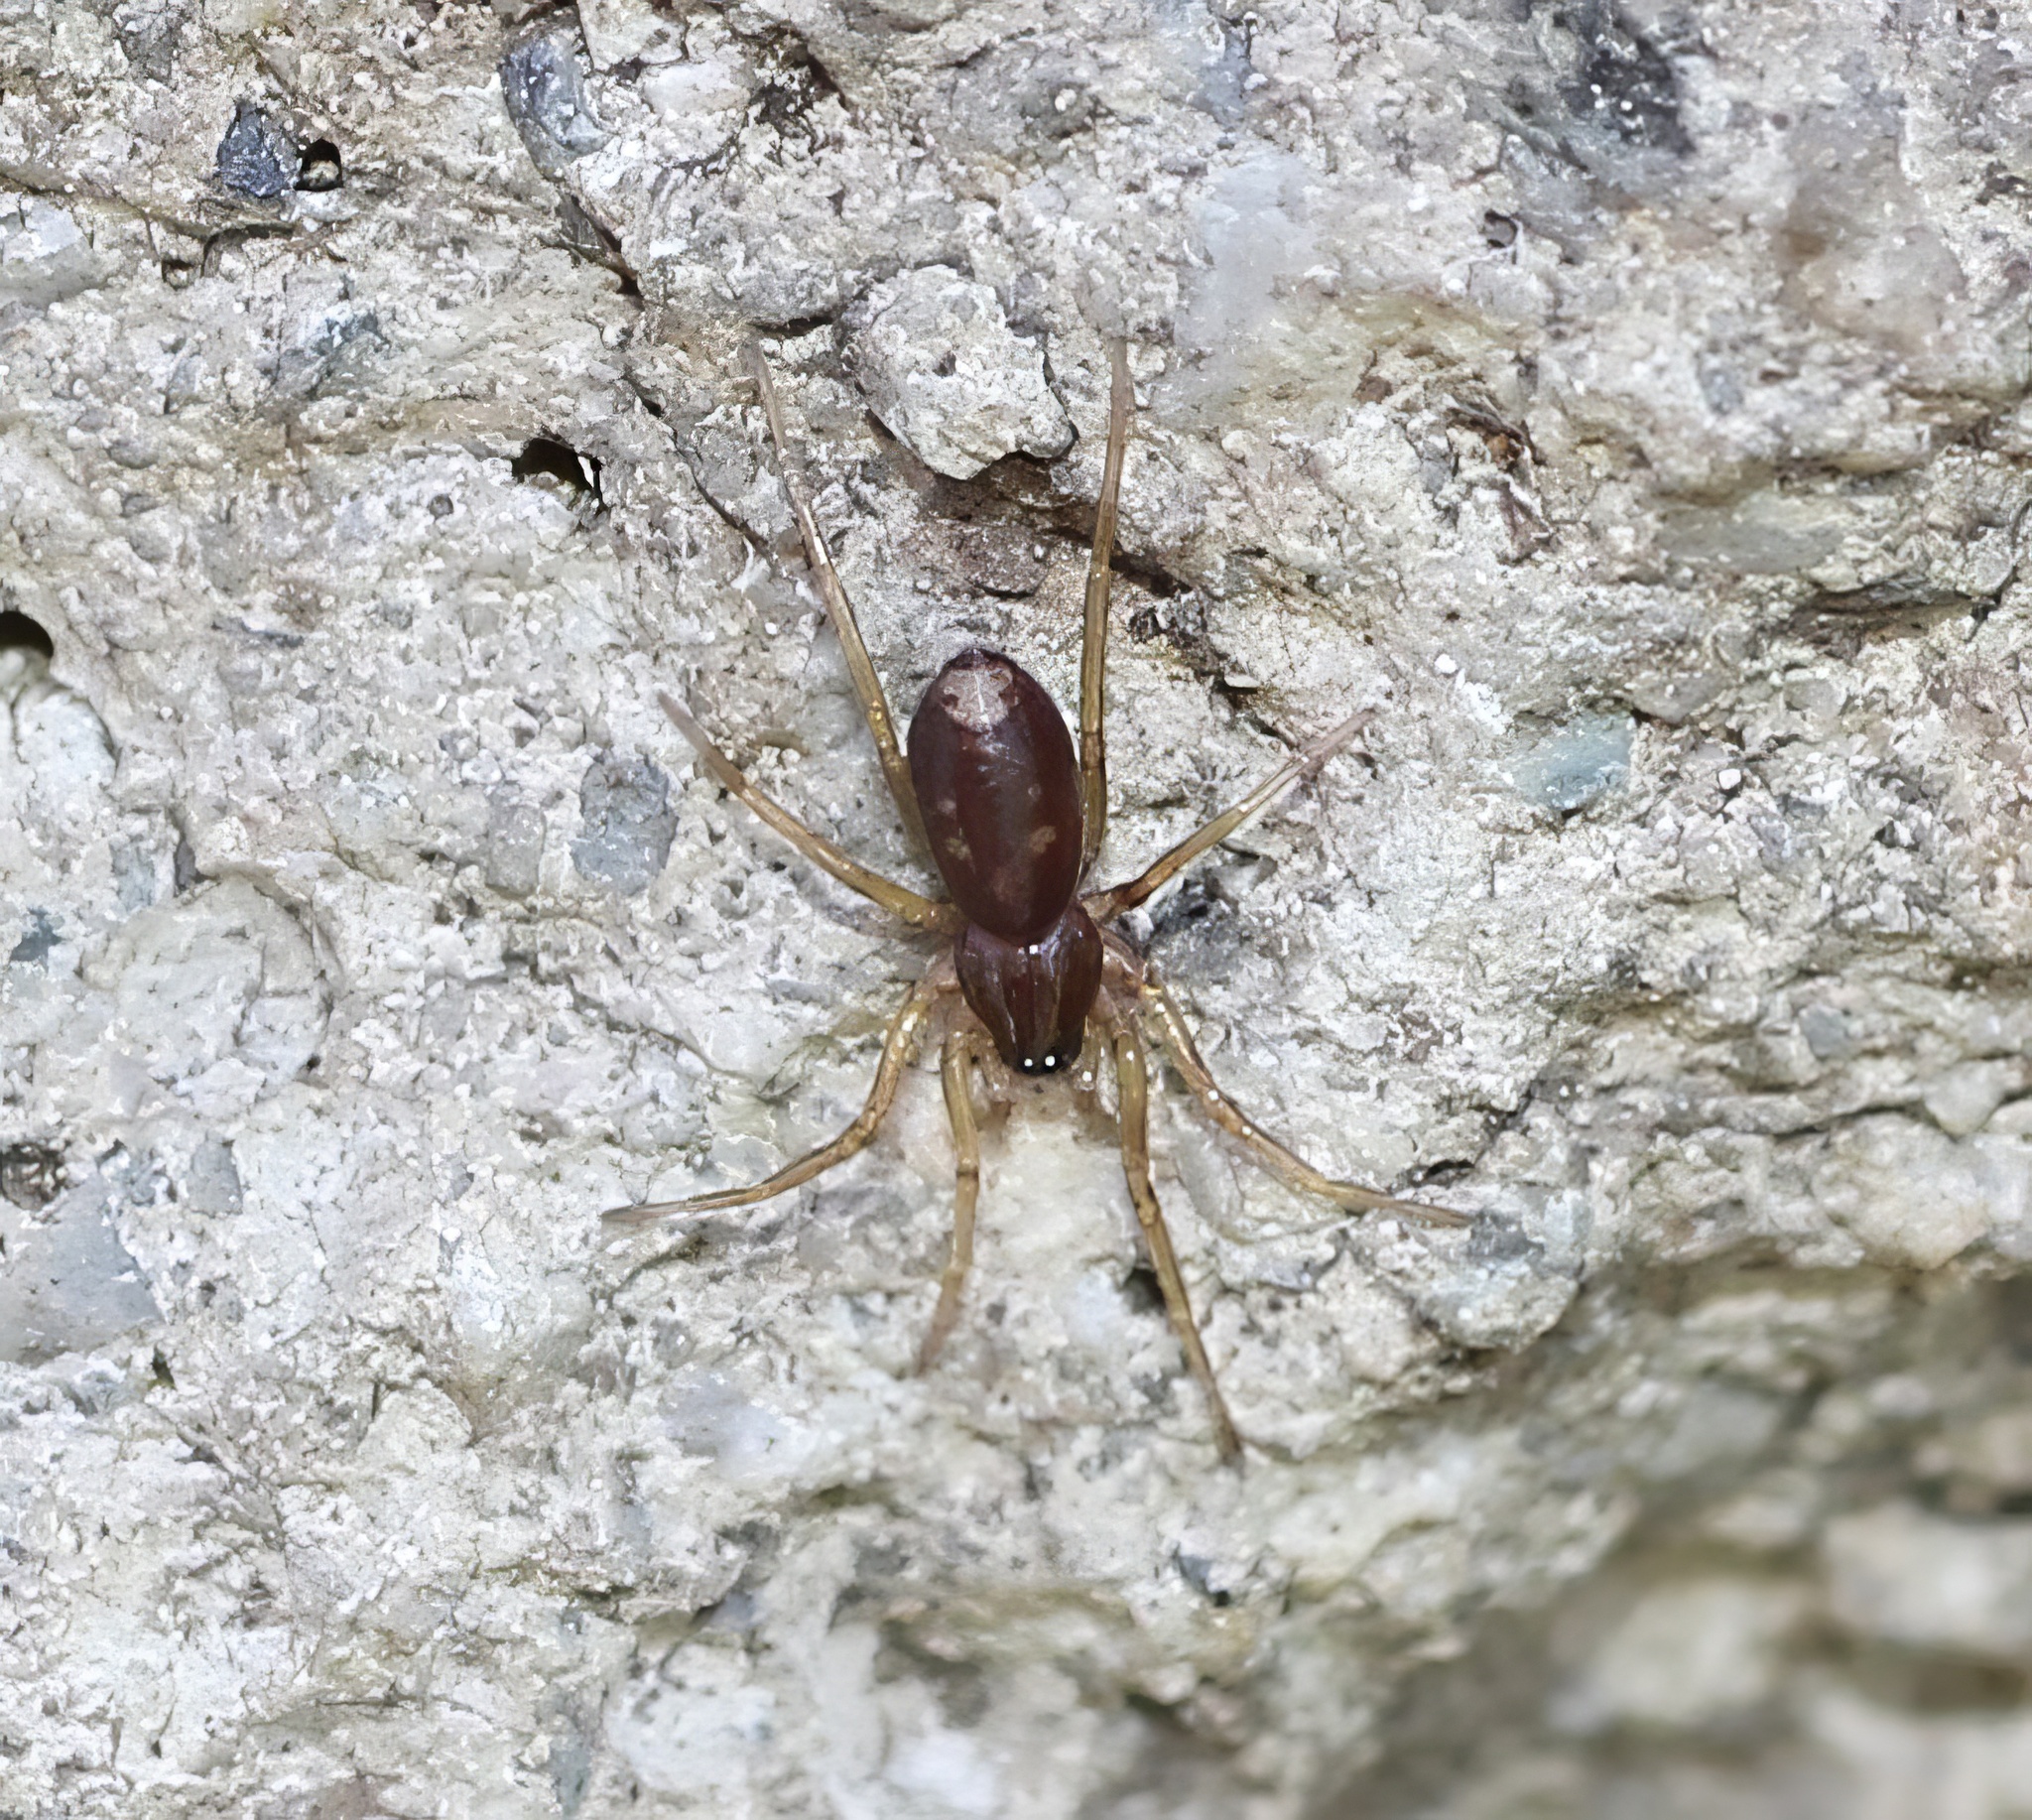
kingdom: Animalia
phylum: Arthropoda
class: Arachnida
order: Araneae
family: Corinnidae
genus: Falconina
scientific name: Falconina gracilis
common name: Antmimic spider
